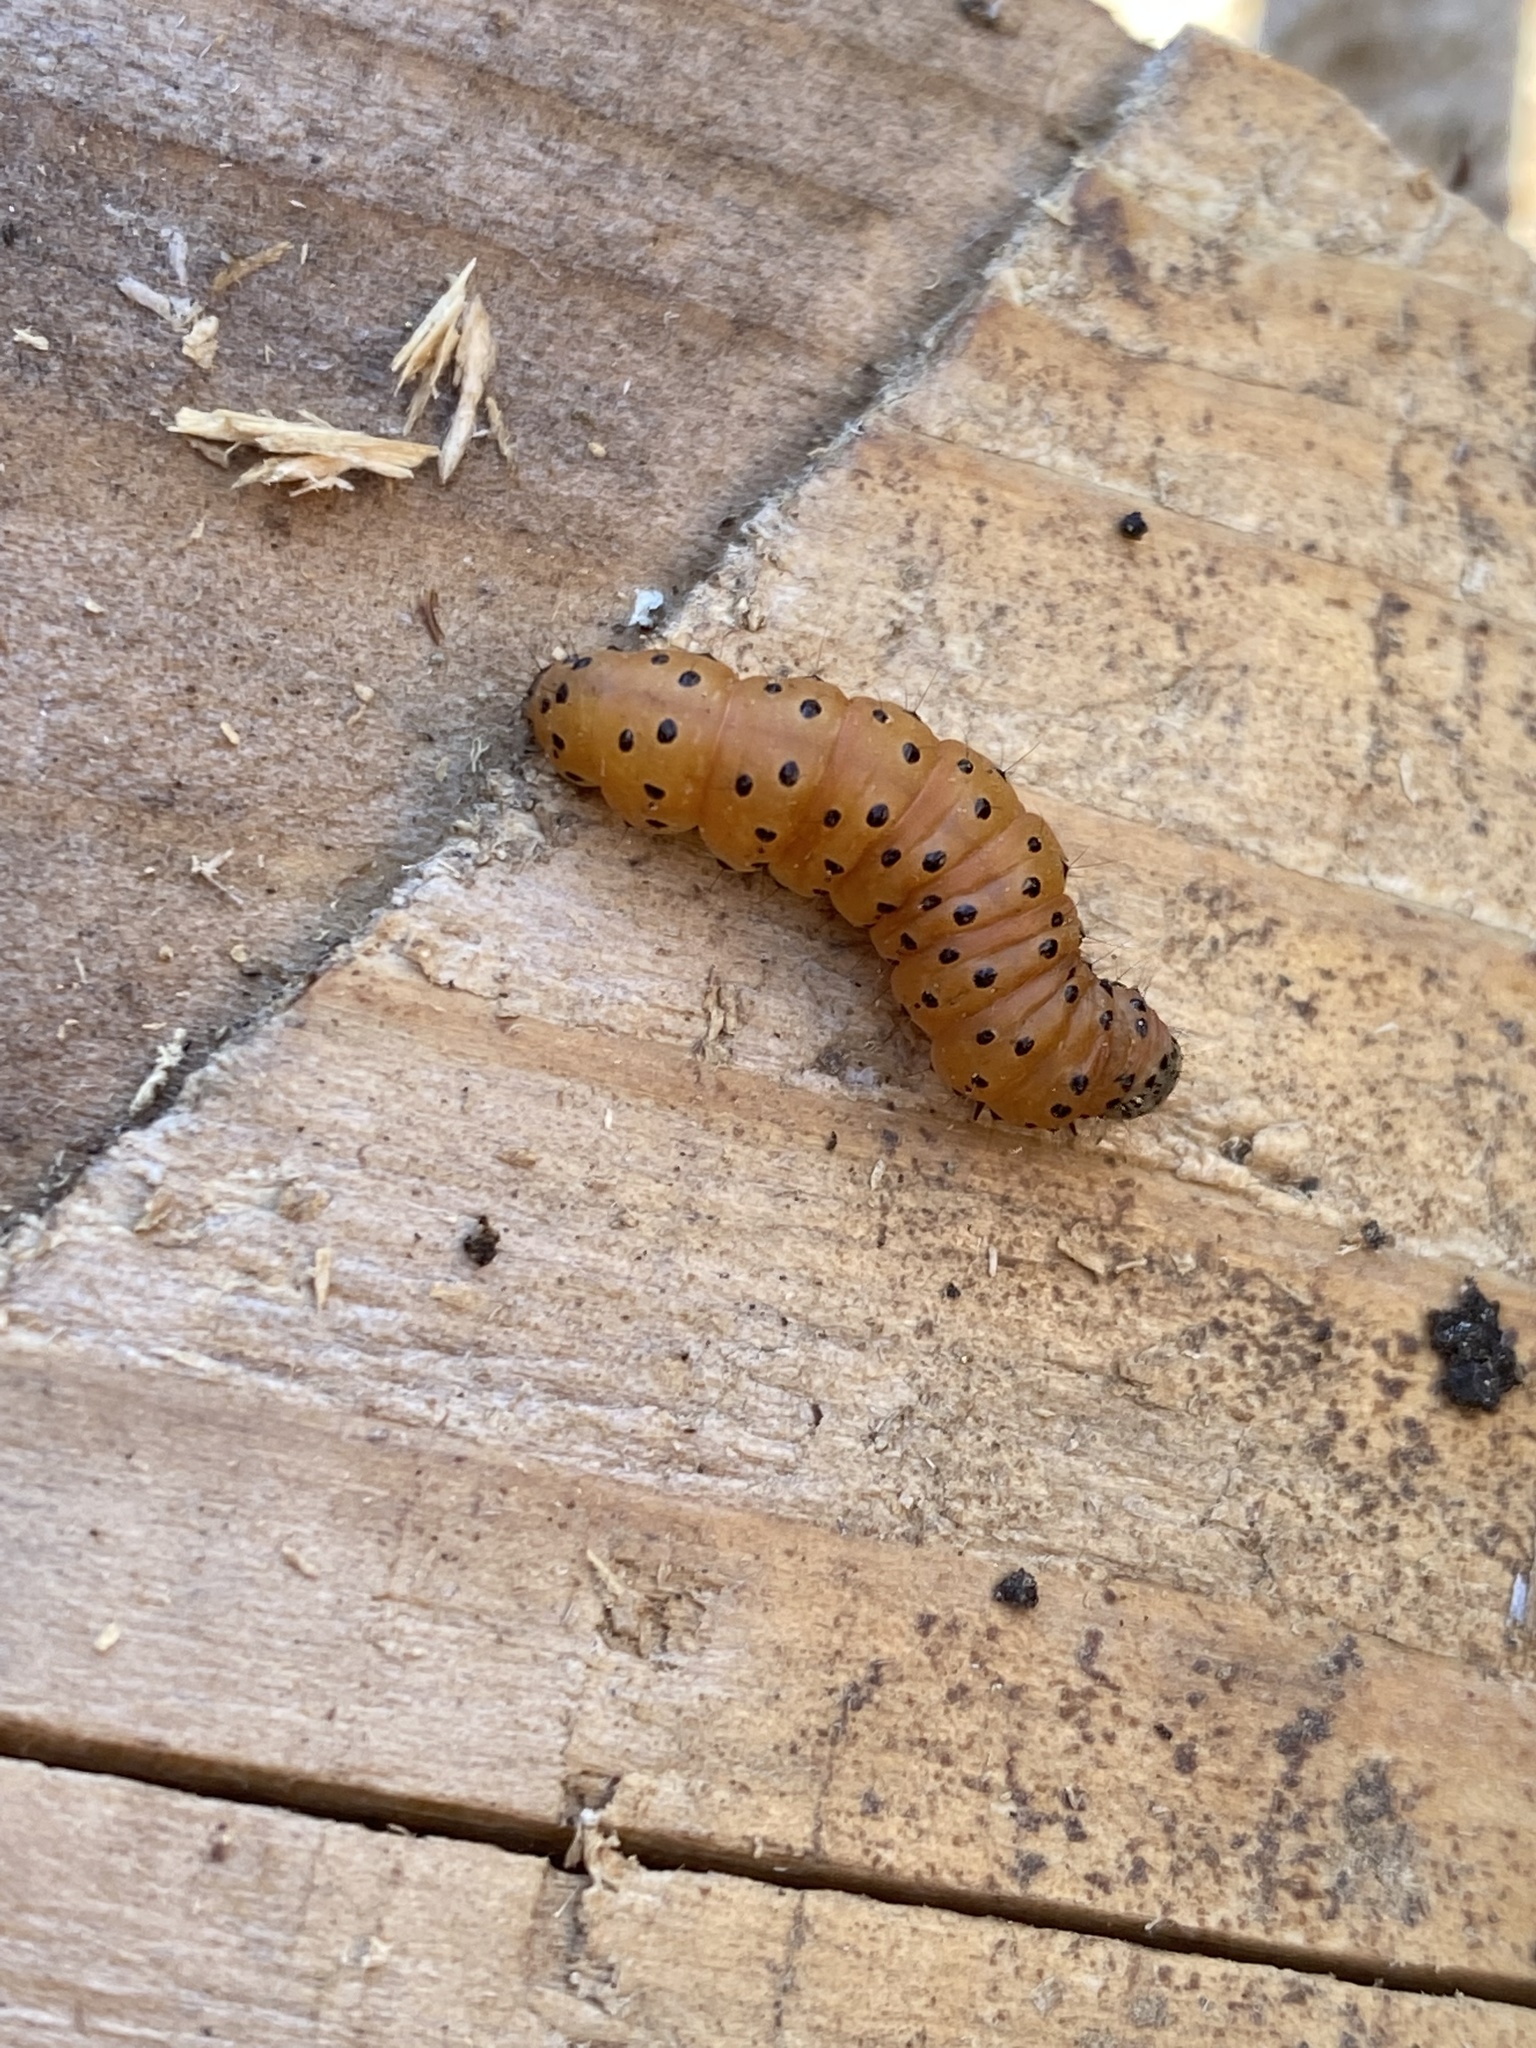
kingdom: Animalia
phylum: Arthropoda
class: Insecta
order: Lepidoptera
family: Crambidae
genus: Saucrobotys
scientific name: Saucrobotys futilalis
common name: Dogbane saucrobotys moth
